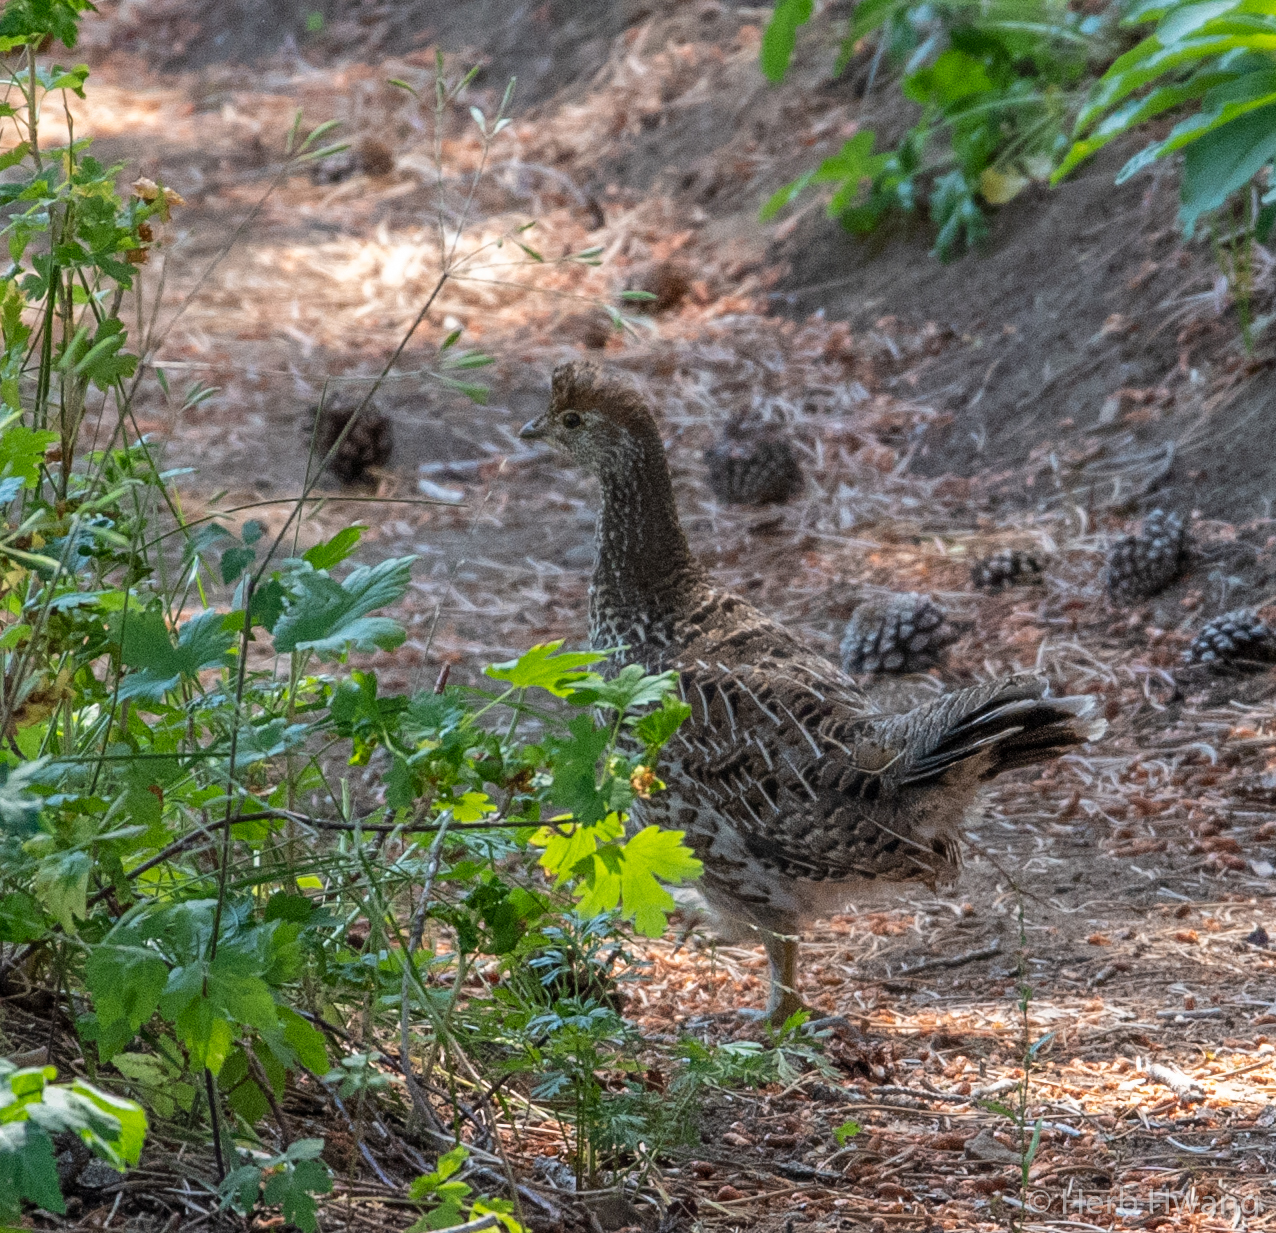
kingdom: Animalia
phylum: Chordata
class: Aves
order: Galliformes
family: Phasianidae
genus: Dendragapus
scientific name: Dendragapus fuliginosus
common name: Sooty grouse
